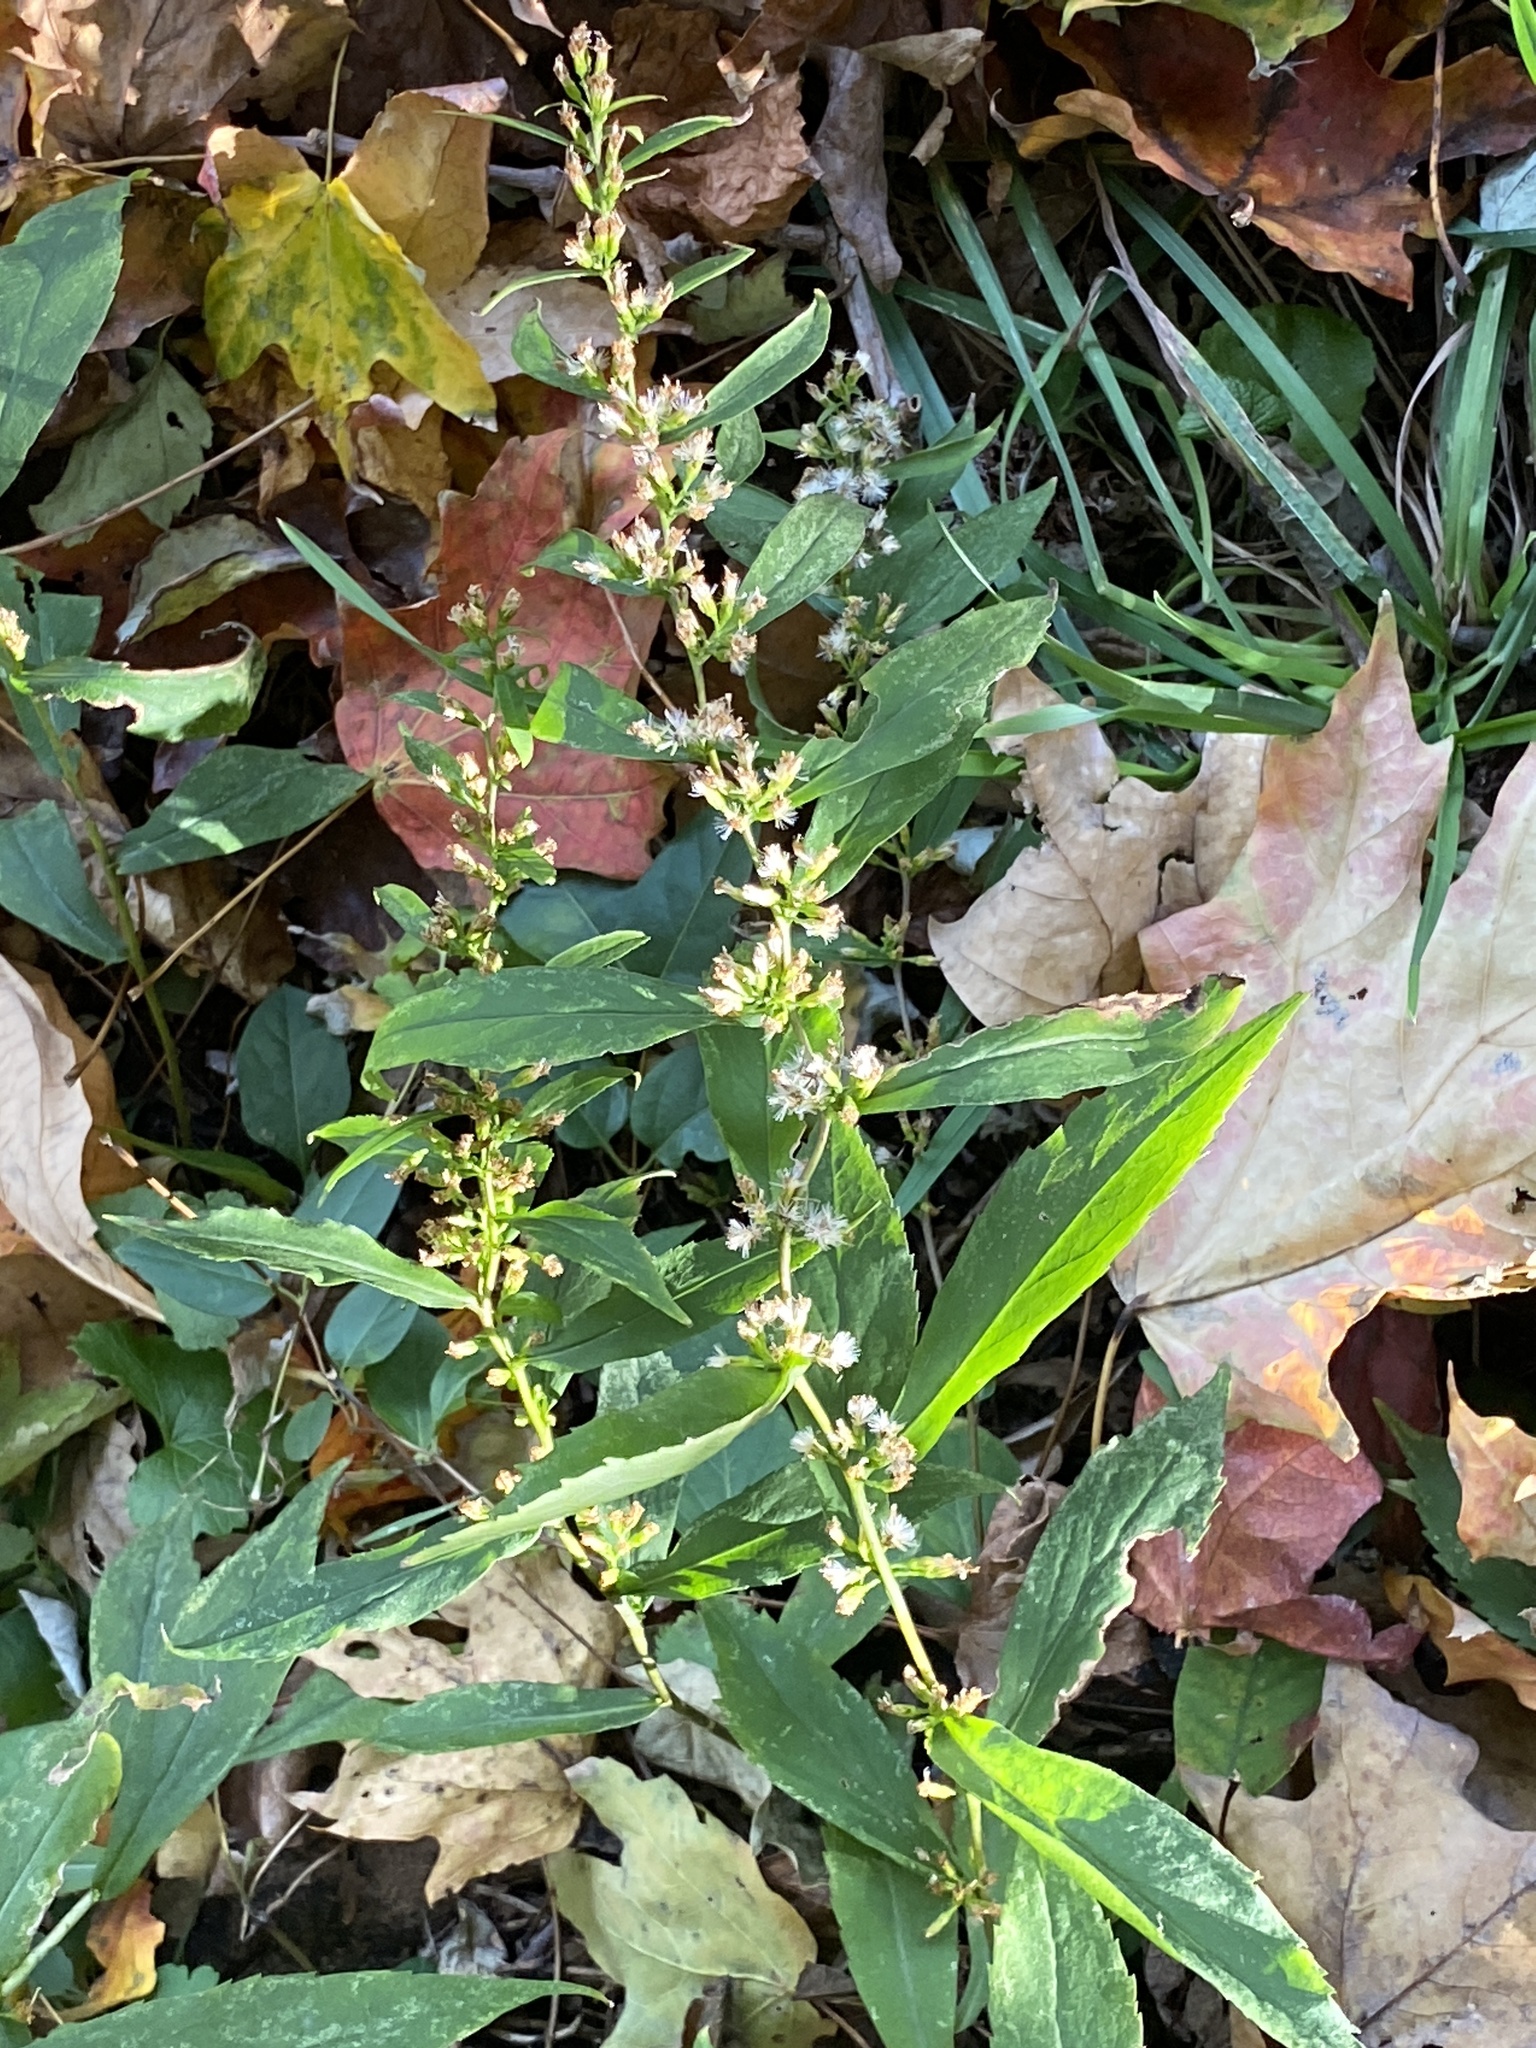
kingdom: Plantae
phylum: Tracheophyta
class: Magnoliopsida
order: Asterales
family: Asteraceae
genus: Solidago
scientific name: Solidago caesia
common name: Woodland goldenrod
